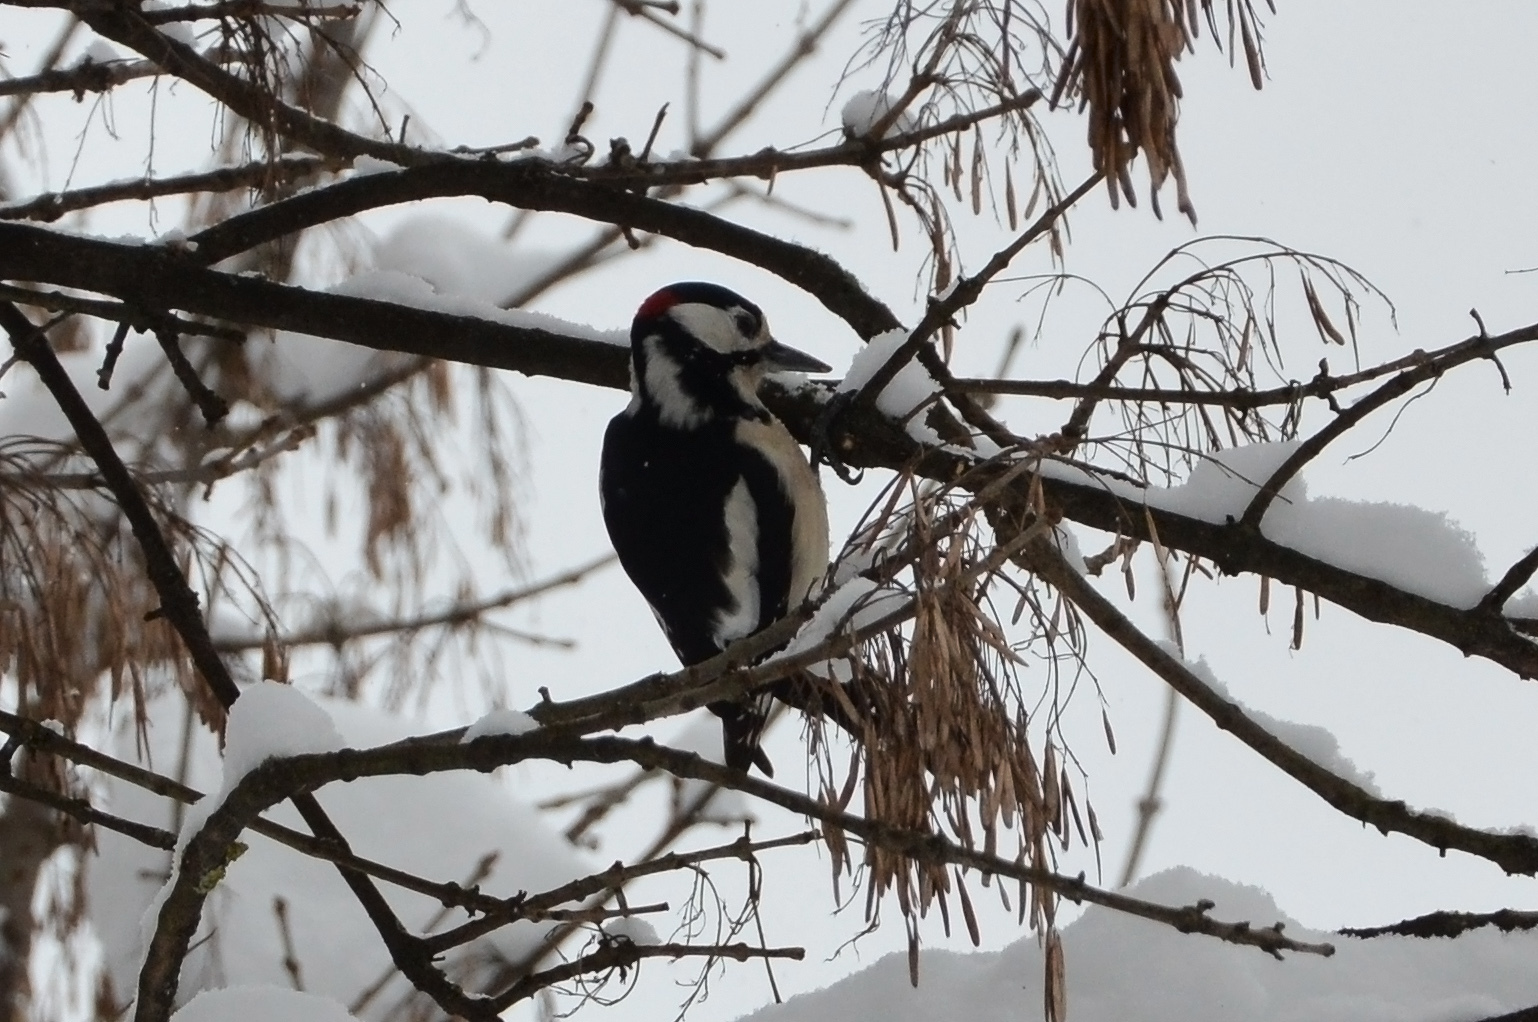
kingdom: Animalia
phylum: Chordata
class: Aves
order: Piciformes
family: Picidae
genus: Dendrocopos
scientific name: Dendrocopos major
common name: Great spotted woodpecker
